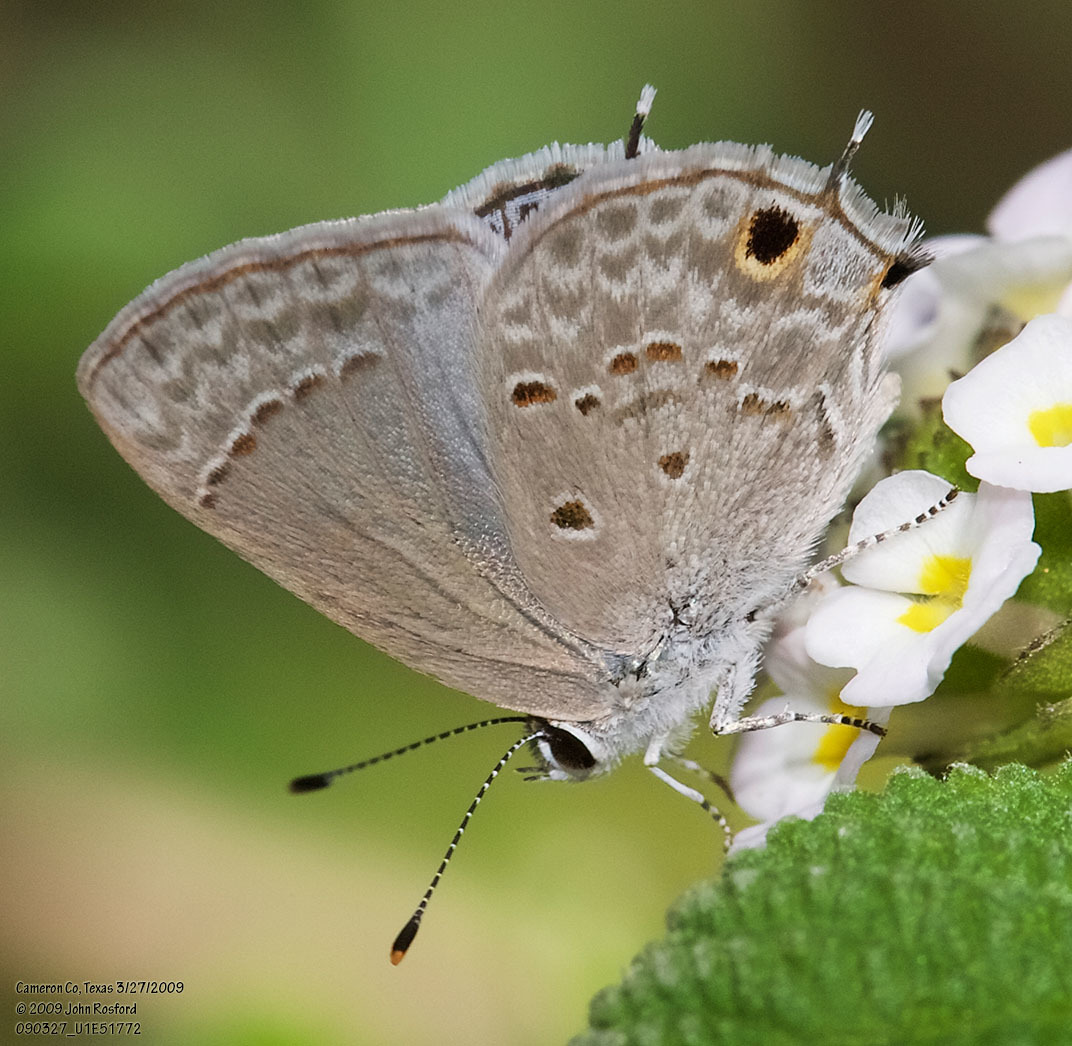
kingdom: Animalia
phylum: Arthropoda
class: Insecta
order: Lepidoptera
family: Lycaenidae
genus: Callicista
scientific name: Callicista columella
